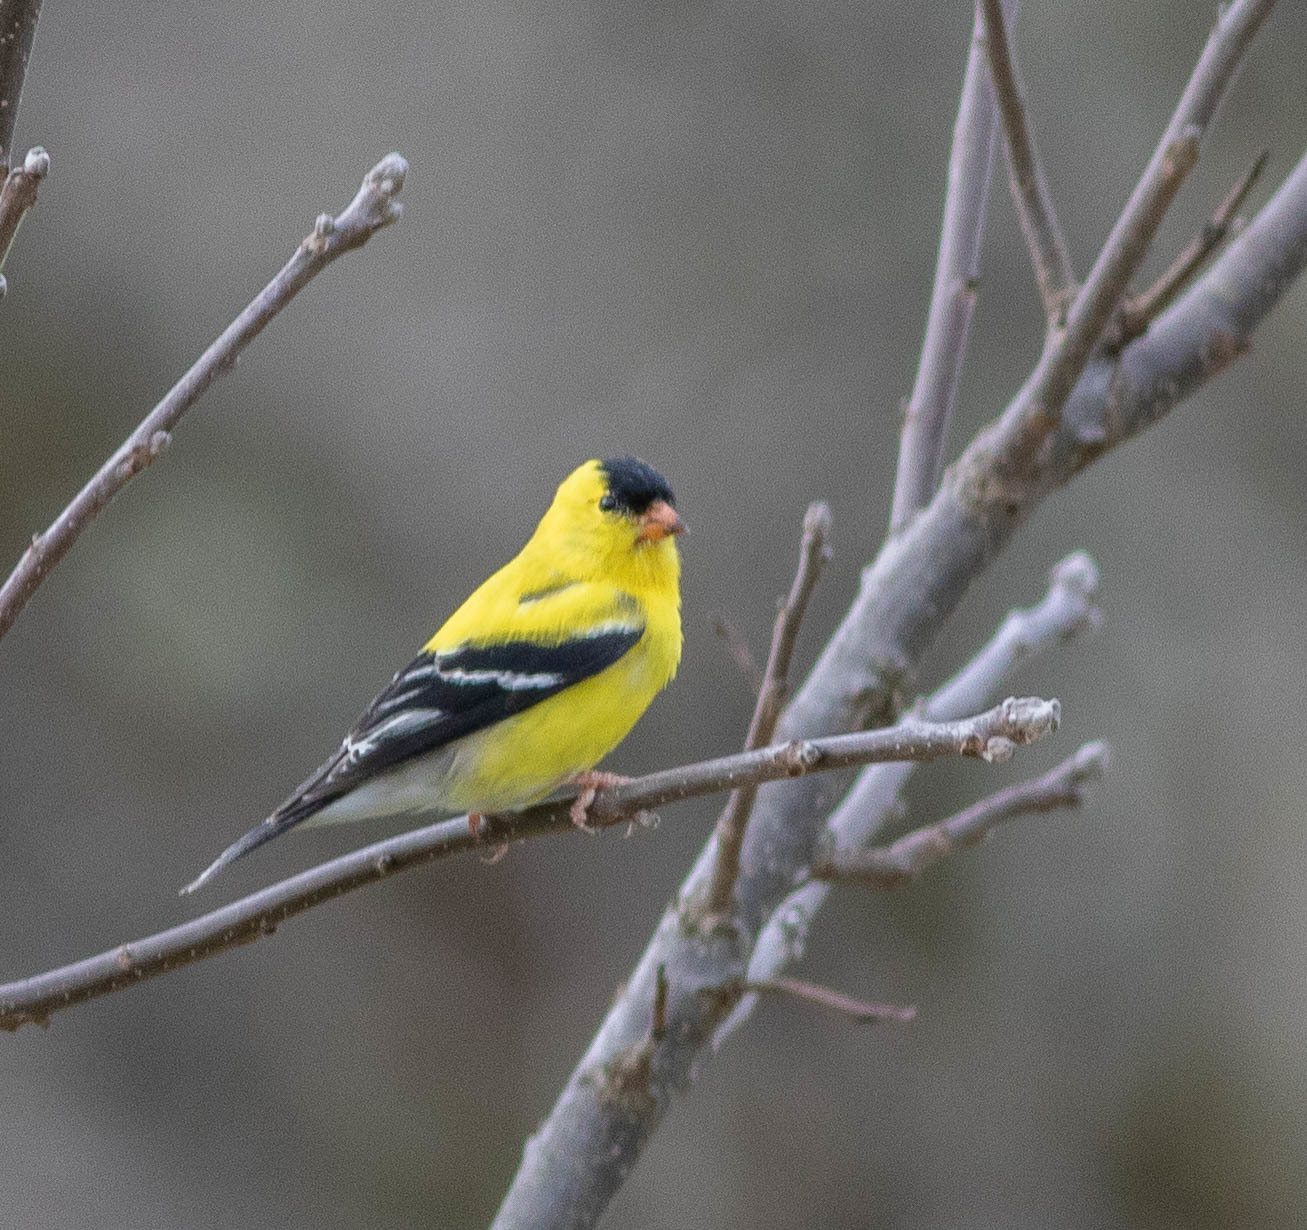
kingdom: Animalia
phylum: Chordata
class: Aves
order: Passeriformes
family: Fringillidae
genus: Spinus
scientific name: Spinus tristis
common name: American goldfinch
